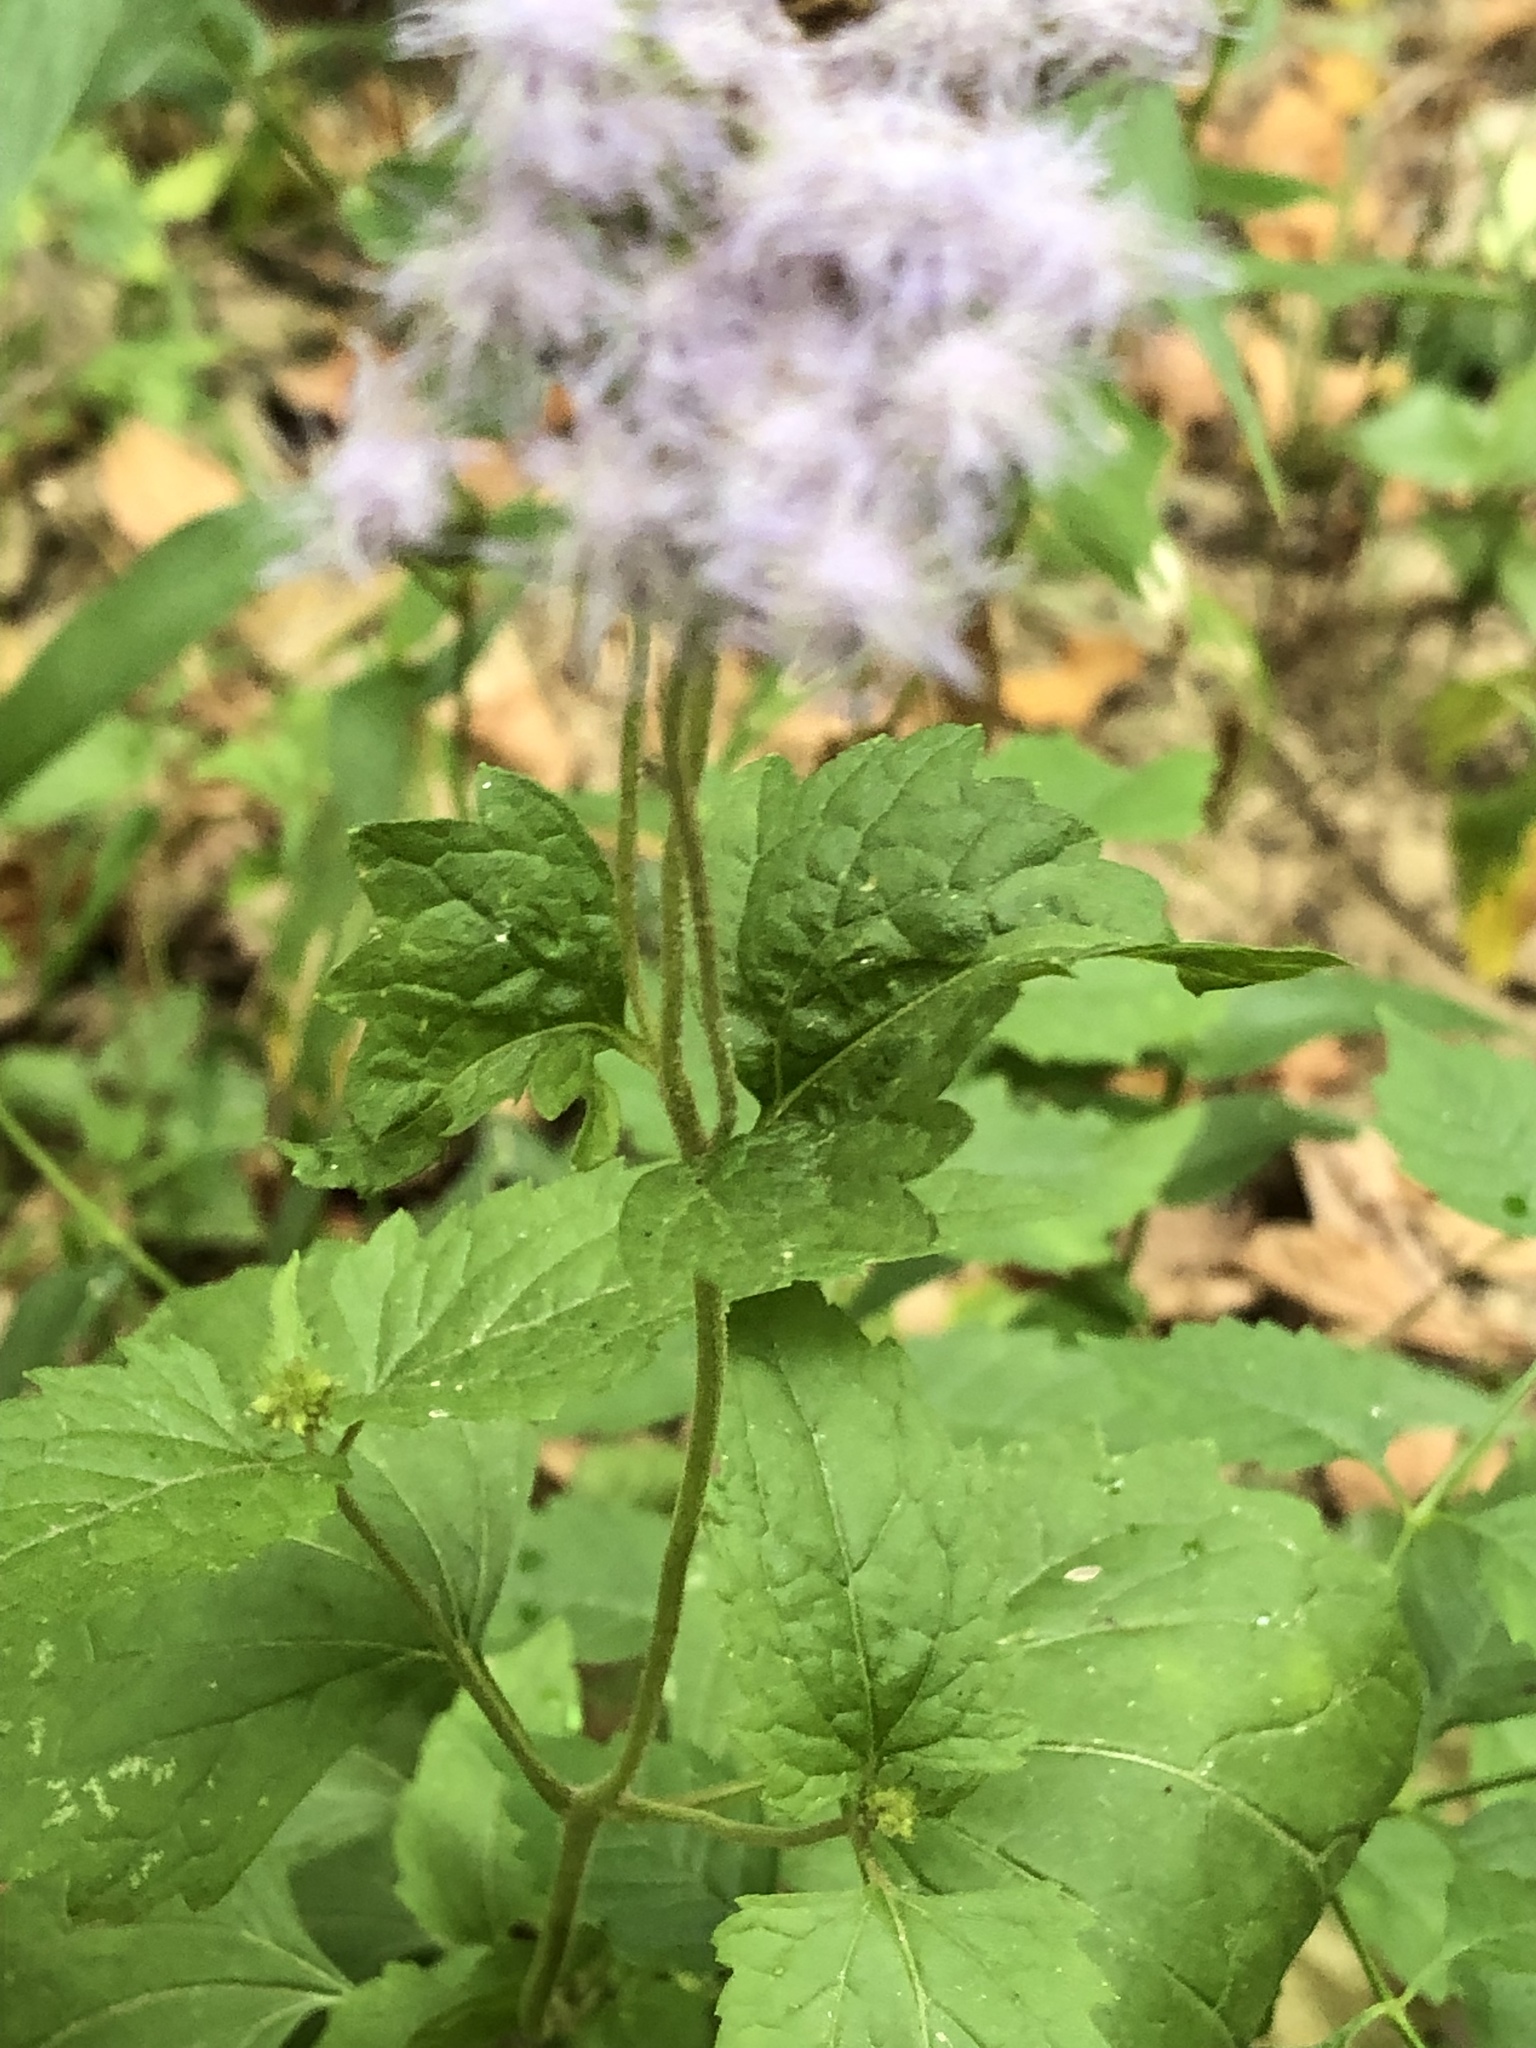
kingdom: Plantae
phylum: Tracheophyta
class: Magnoliopsida
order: Asterales
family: Asteraceae
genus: Conoclinium
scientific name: Conoclinium coelestinum
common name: Blue mistflower
